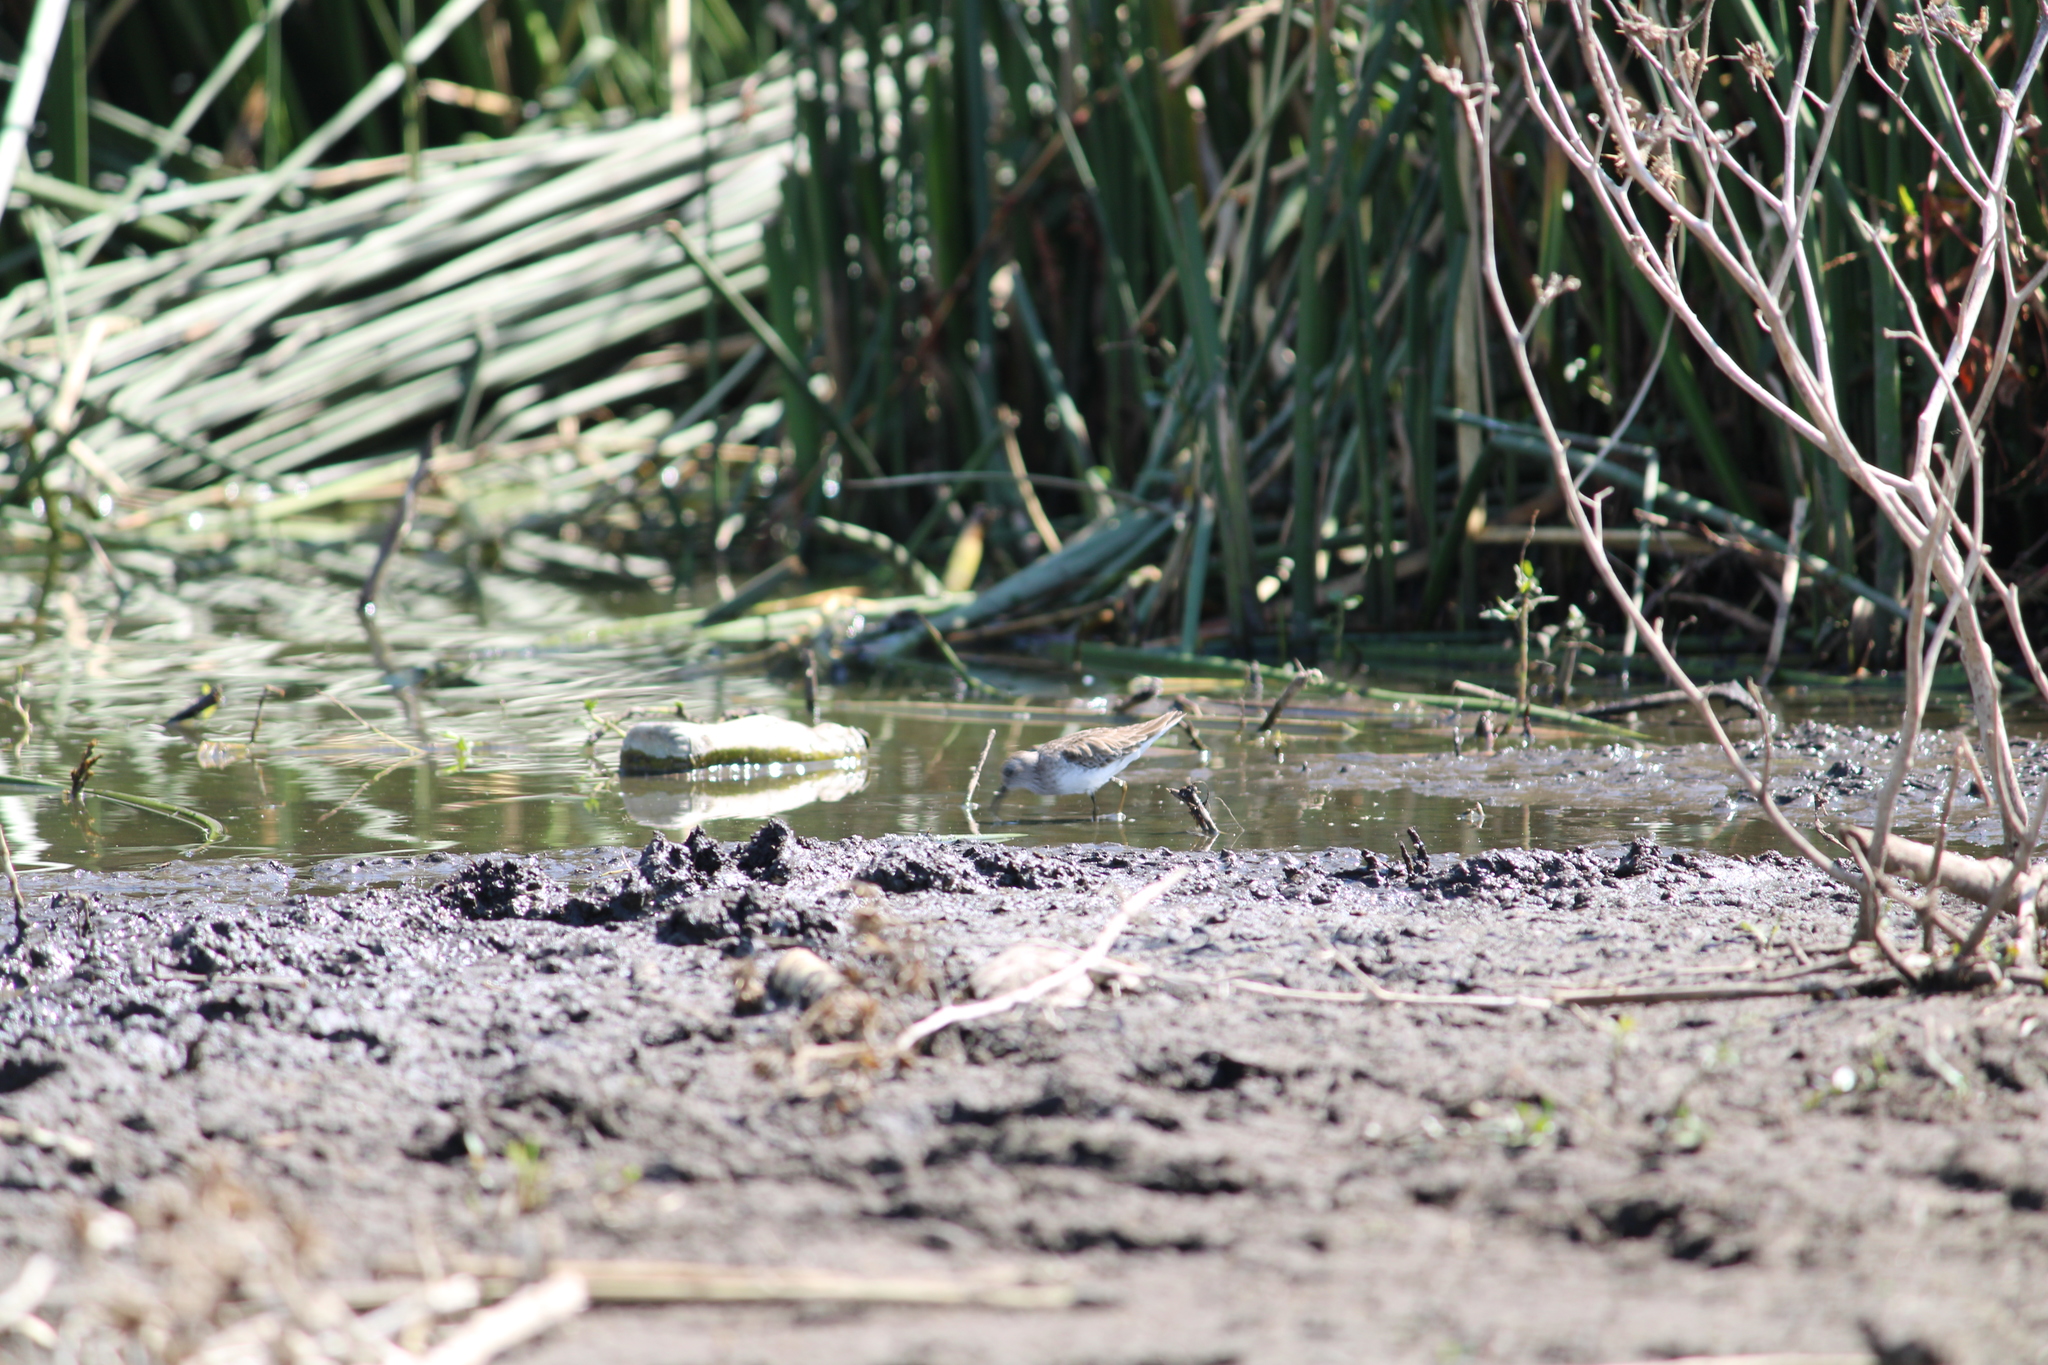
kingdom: Animalia
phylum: Chordata
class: Aves
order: Charadriiformes
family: Scolopacidae
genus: Calidris
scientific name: Calidris minutilla
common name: Least sandpiper
